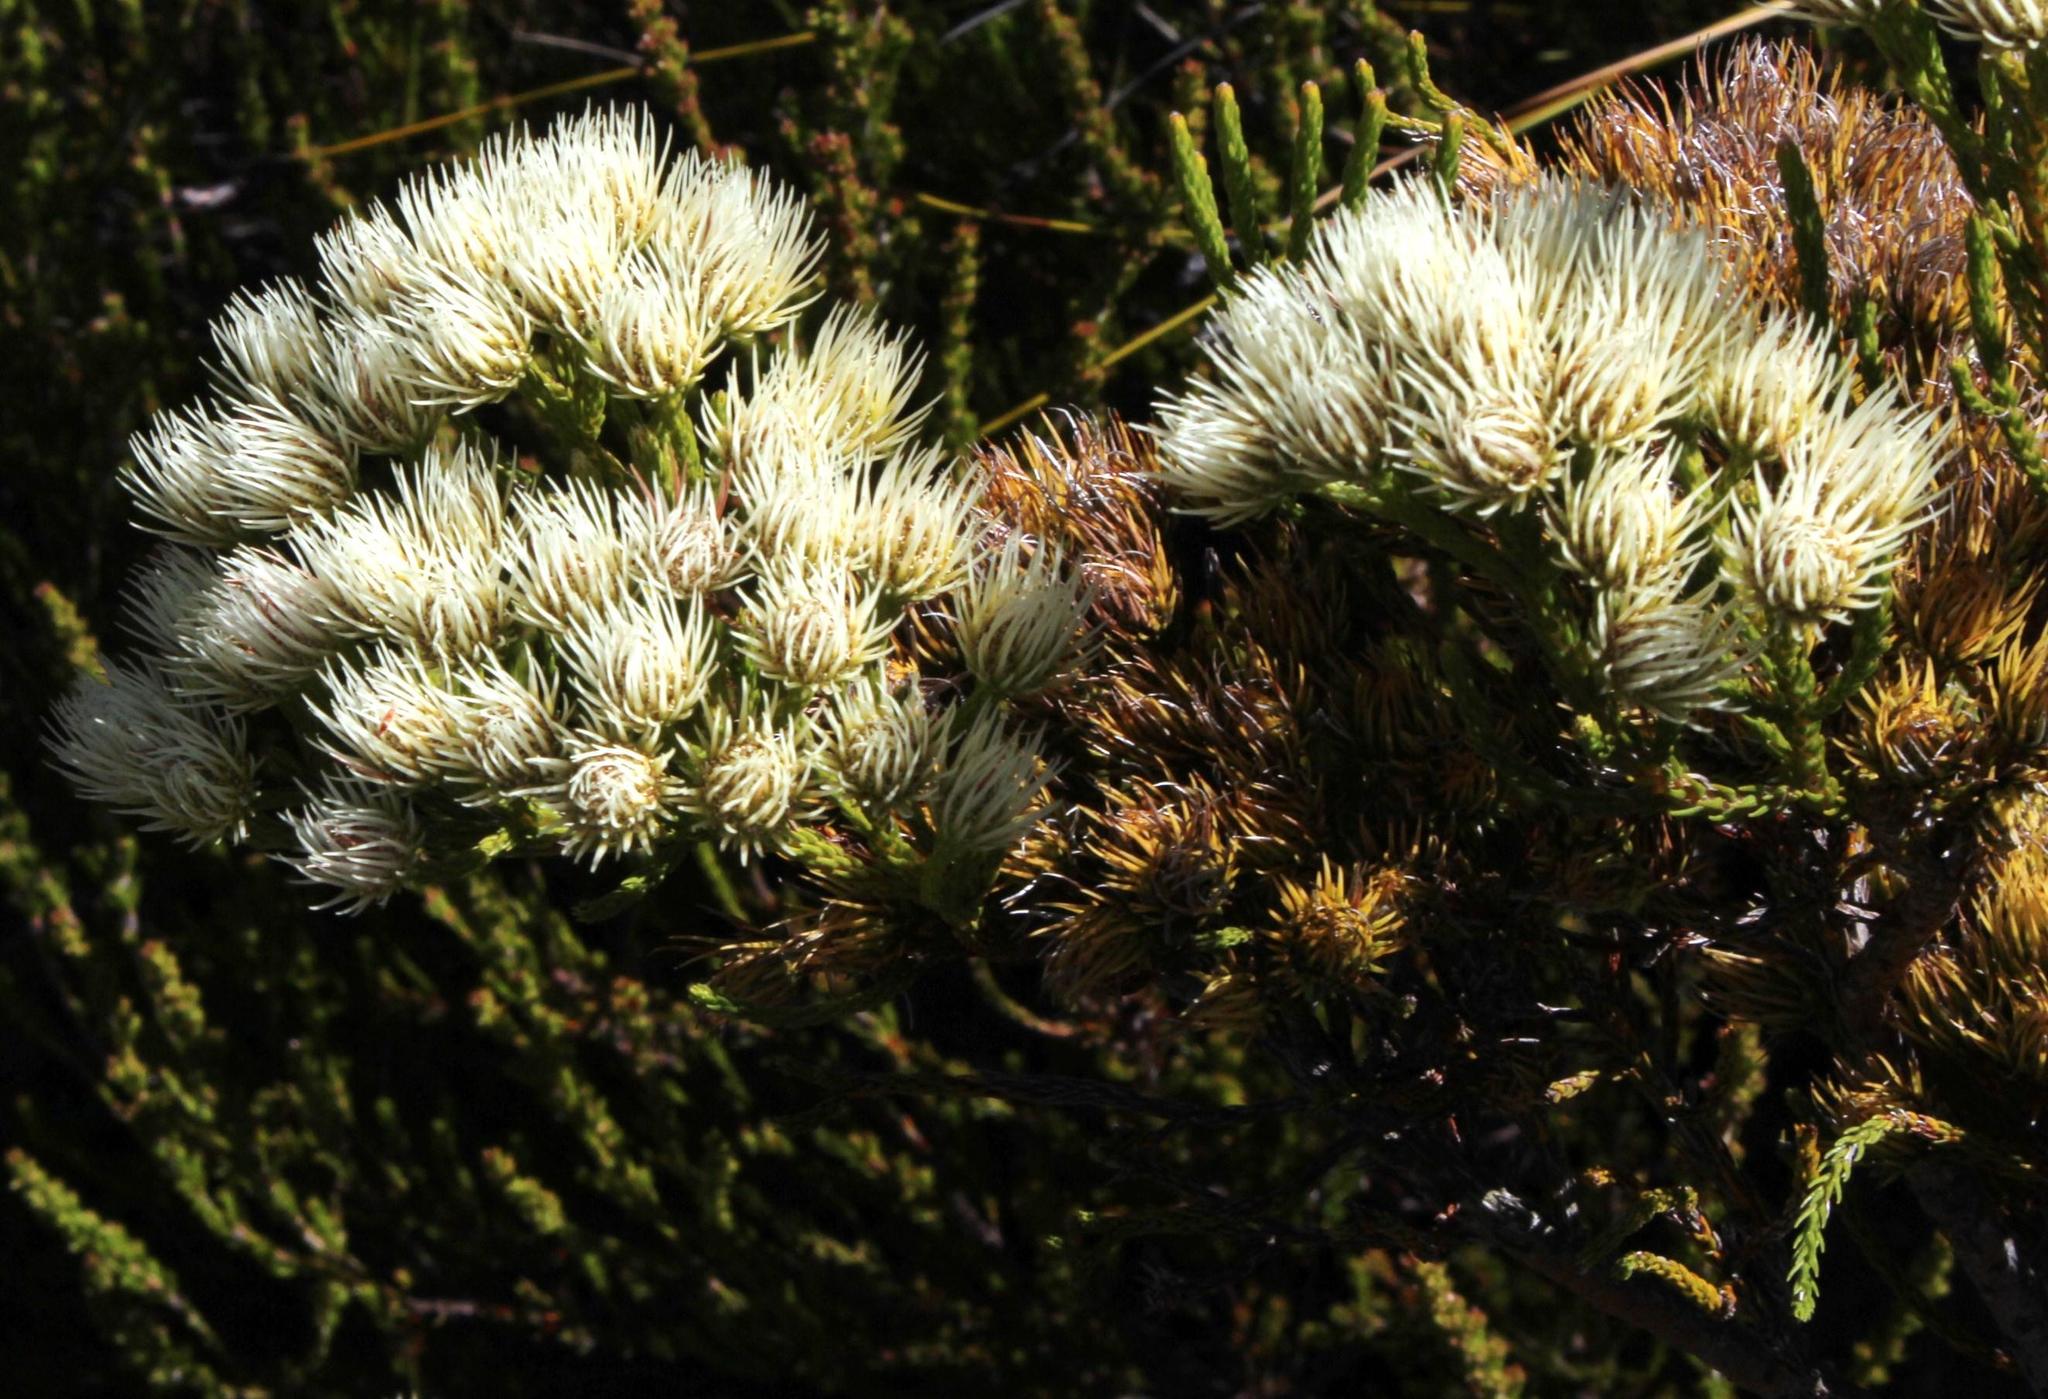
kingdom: Plantae
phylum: Tracheophyta
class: Magnoliopsida
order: Bruniales
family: Bruniaceae
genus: Brunia
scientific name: Brunia paleacea
